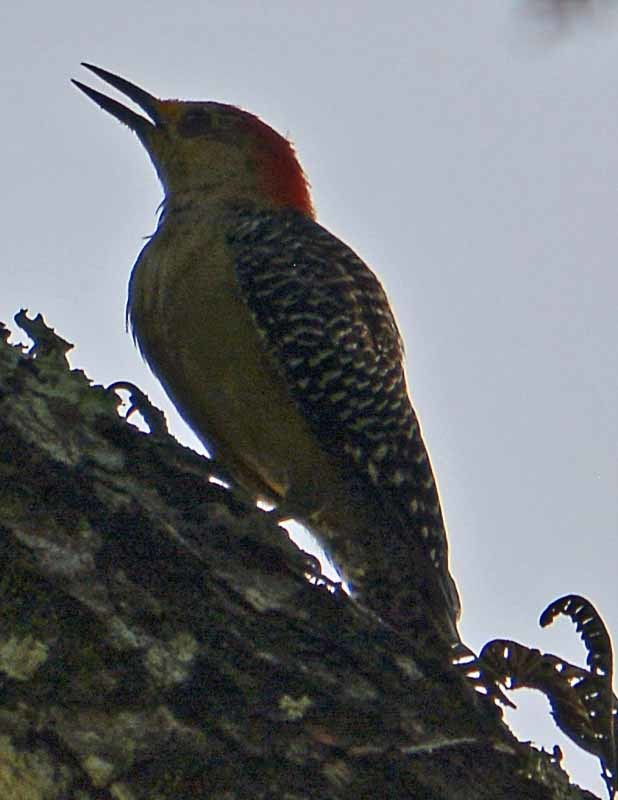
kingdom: Animalia
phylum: Chordata
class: Aves
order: Piciformes
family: Picidae
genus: Melanerpes
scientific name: Melanerpes aurifrons
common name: Golden-fronted woodpecker
